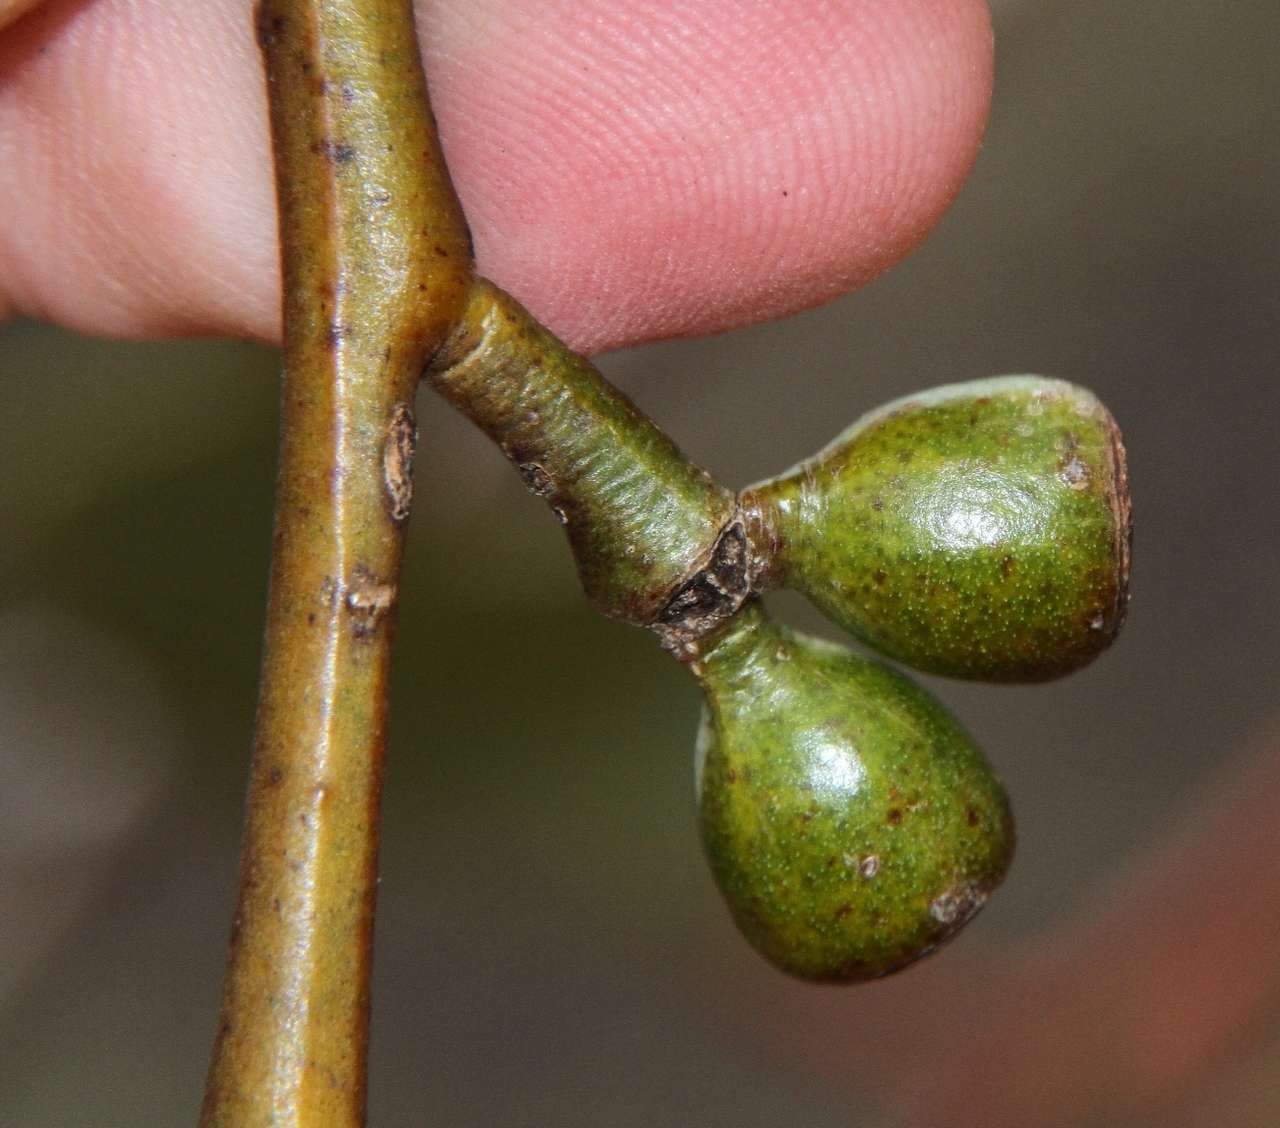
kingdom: Plantae
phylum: Tracheophyta
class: Magnoliopsida
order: Myrtales
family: Myrtaceae
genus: Eucalyptus
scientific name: Eucalyptus cyanophylla
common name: Murraylands mallee
